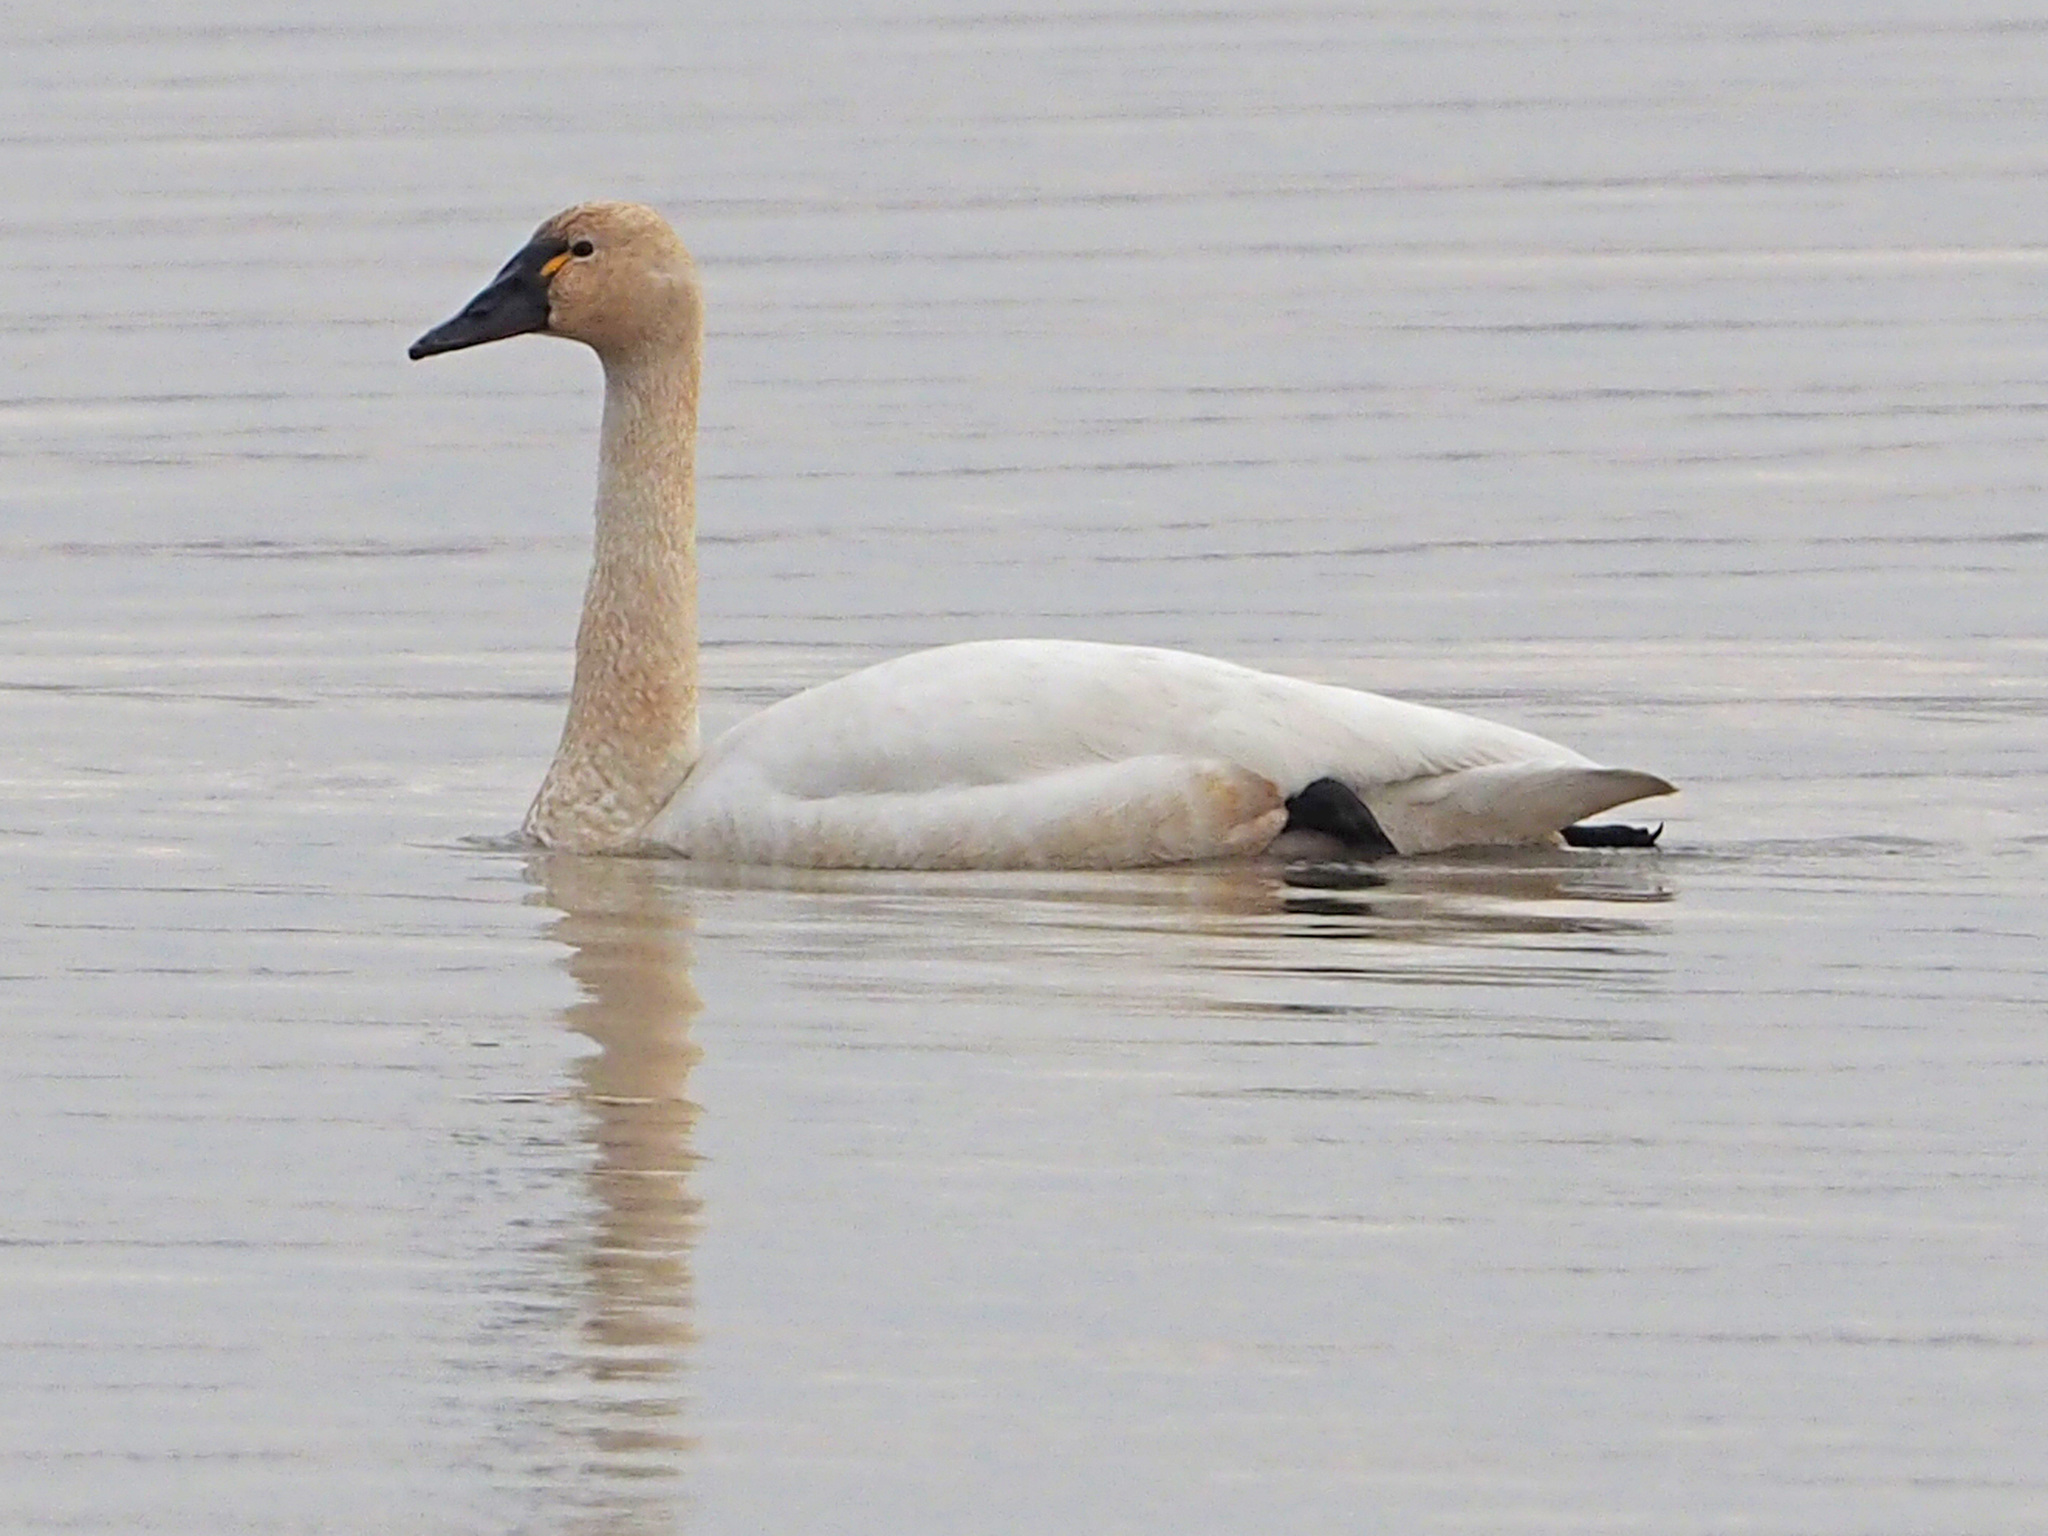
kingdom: Animalia
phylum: Chordata
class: Aves
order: Anseriformes
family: Anatidae
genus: Cygnus
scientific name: Cygnus columbianus
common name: Tundra swan
